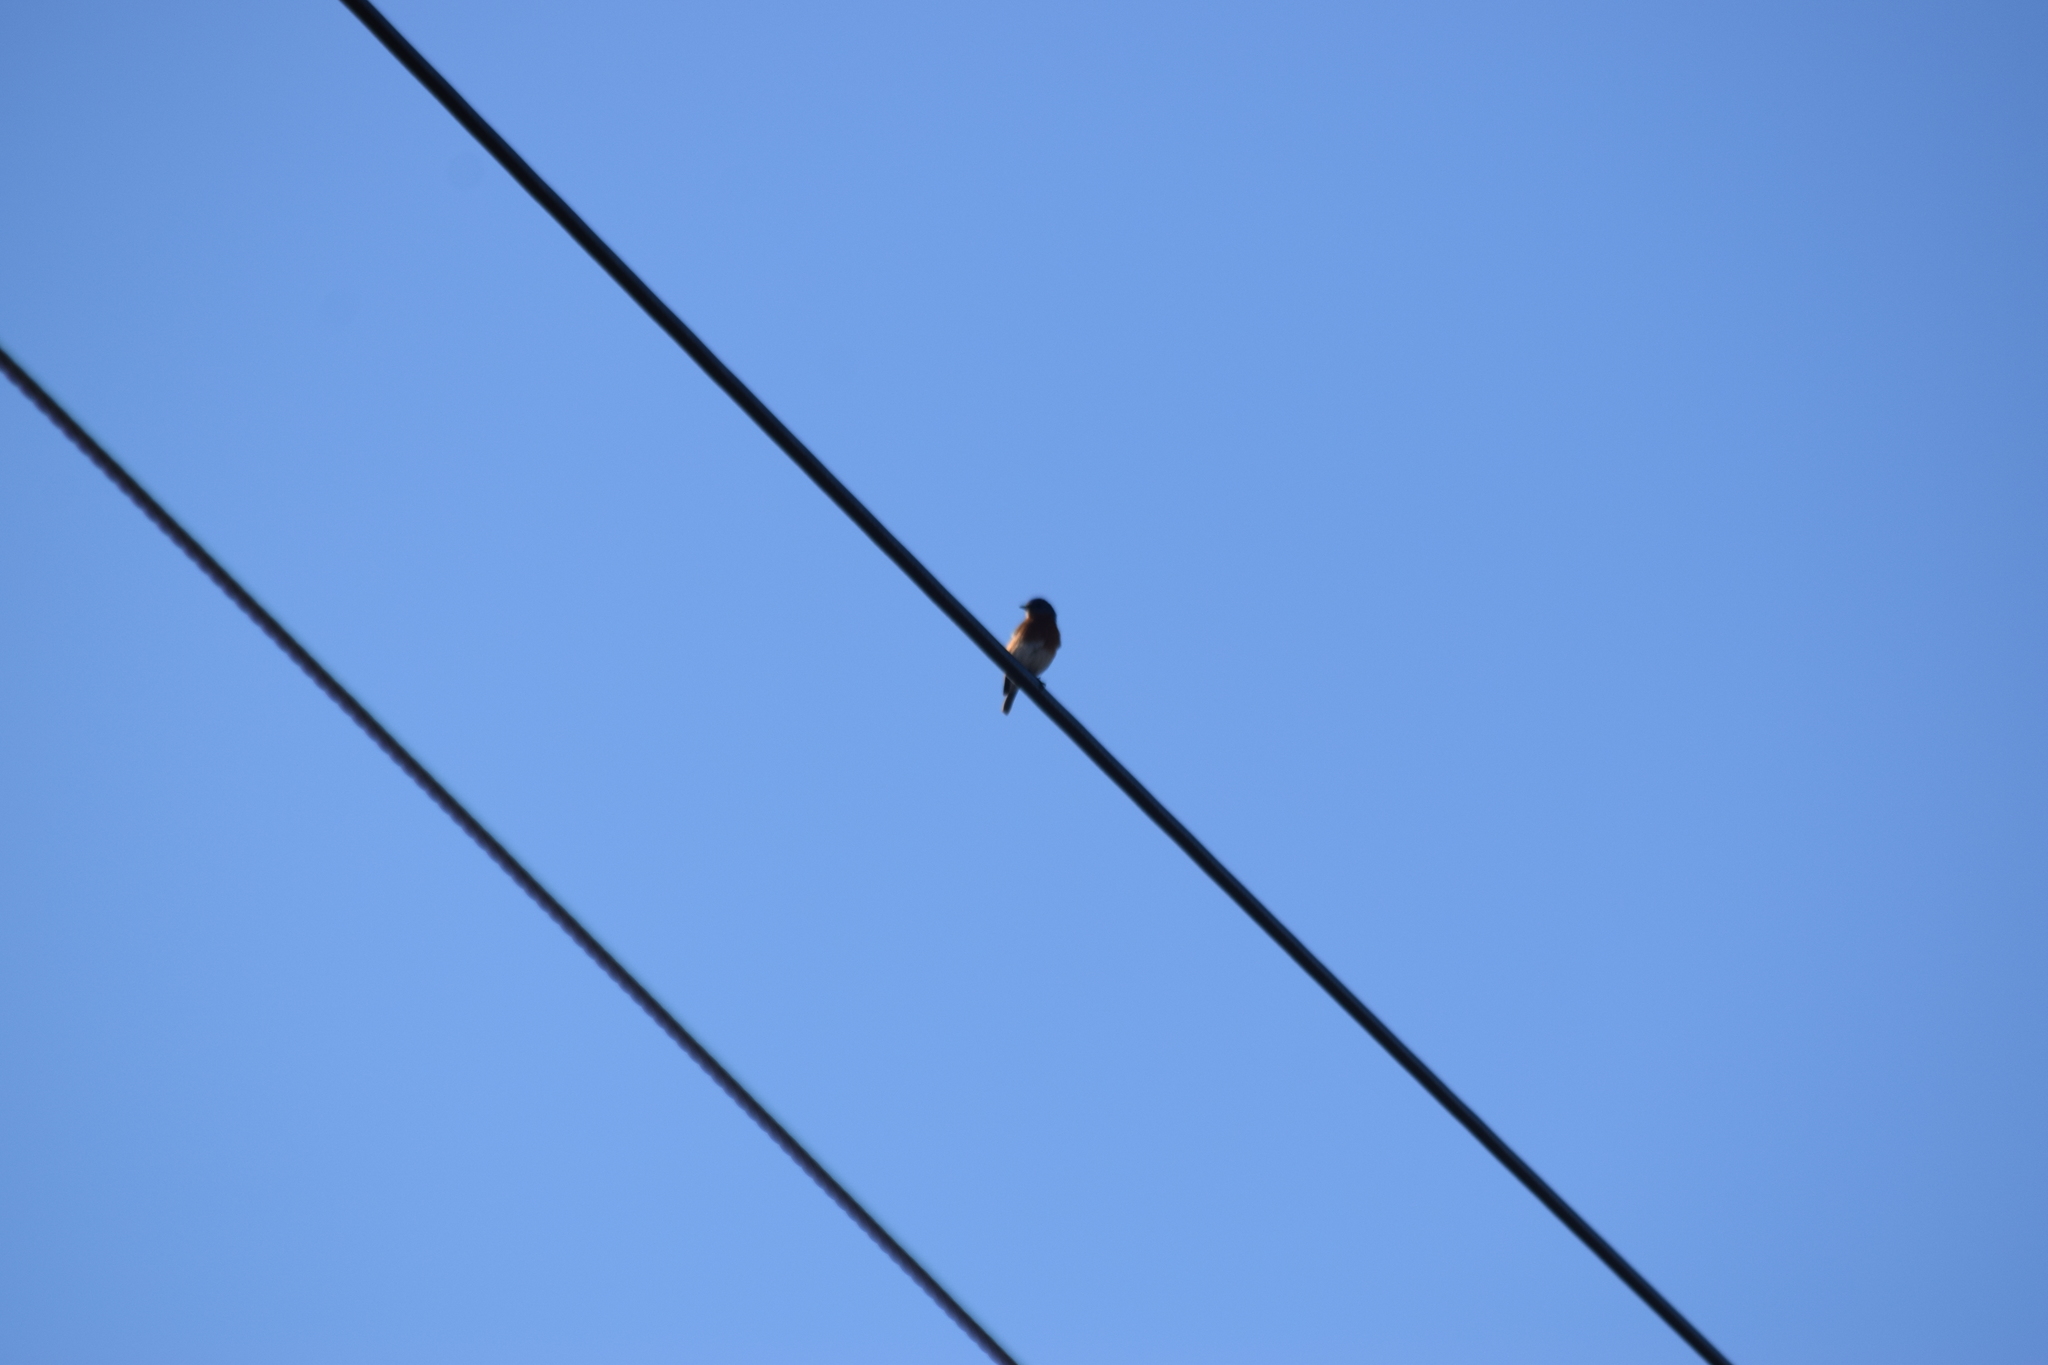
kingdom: Animalia
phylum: Chordata
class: Aves
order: Passeriformes
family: Turdidae
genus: Sialia
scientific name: Sialia sialis
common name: Eastern bluebird
